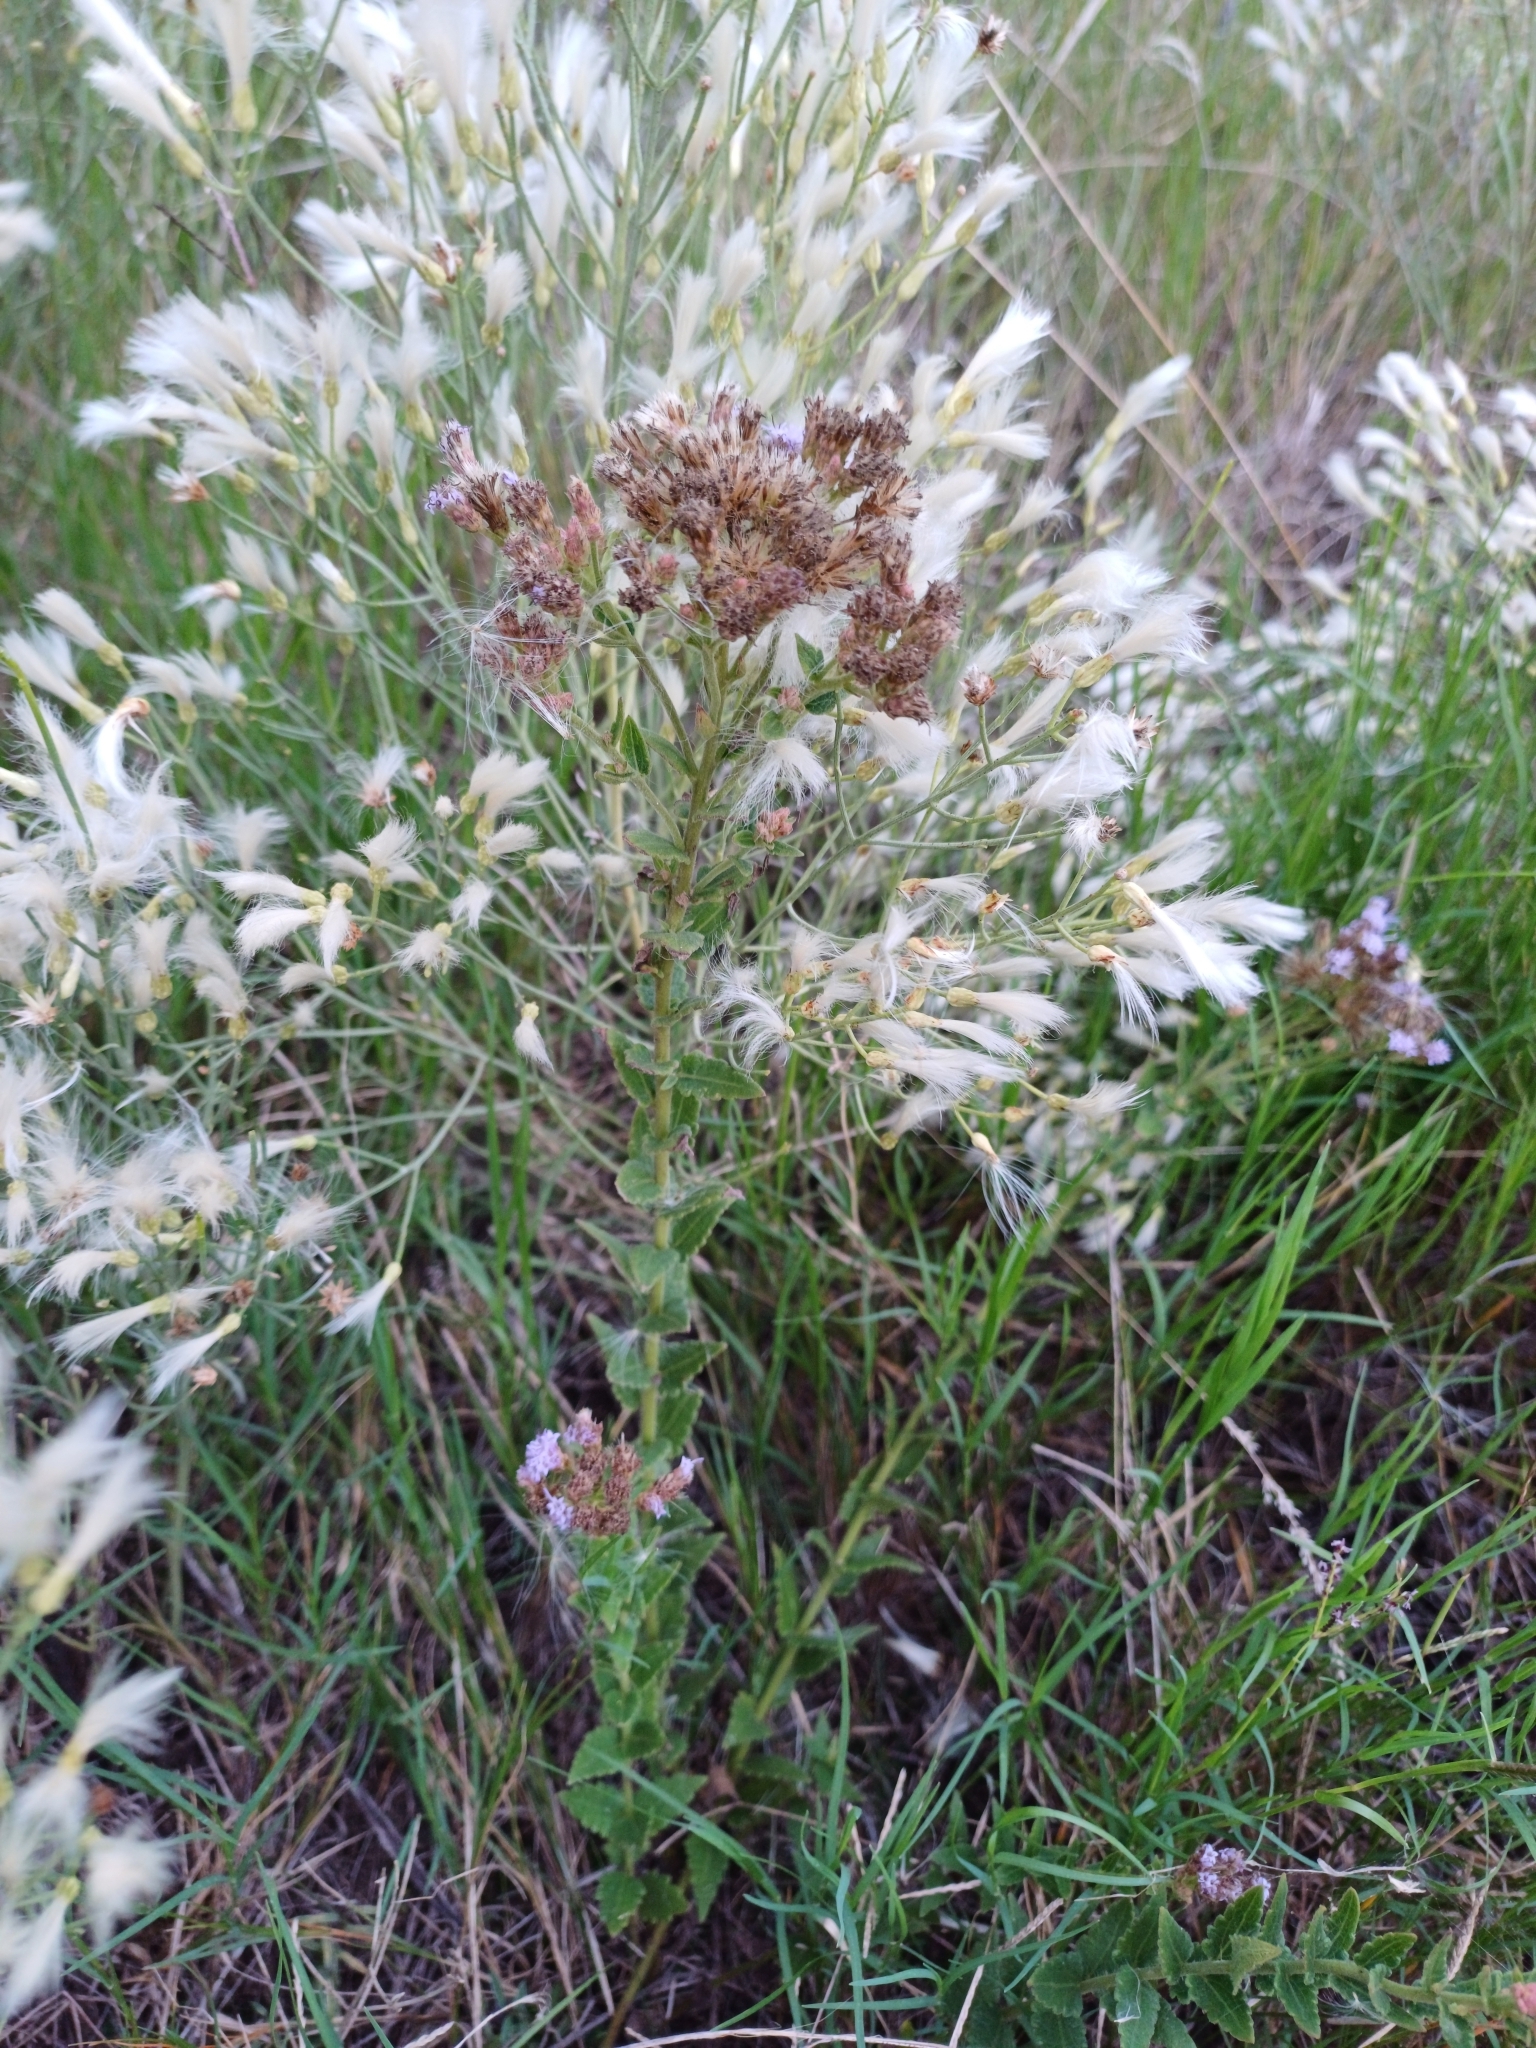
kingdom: Plantae
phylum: Tracheophyta
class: Magnoliopsida
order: Asterales
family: Asteraceae
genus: Chromolaena
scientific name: Chromolaena hirsuta
